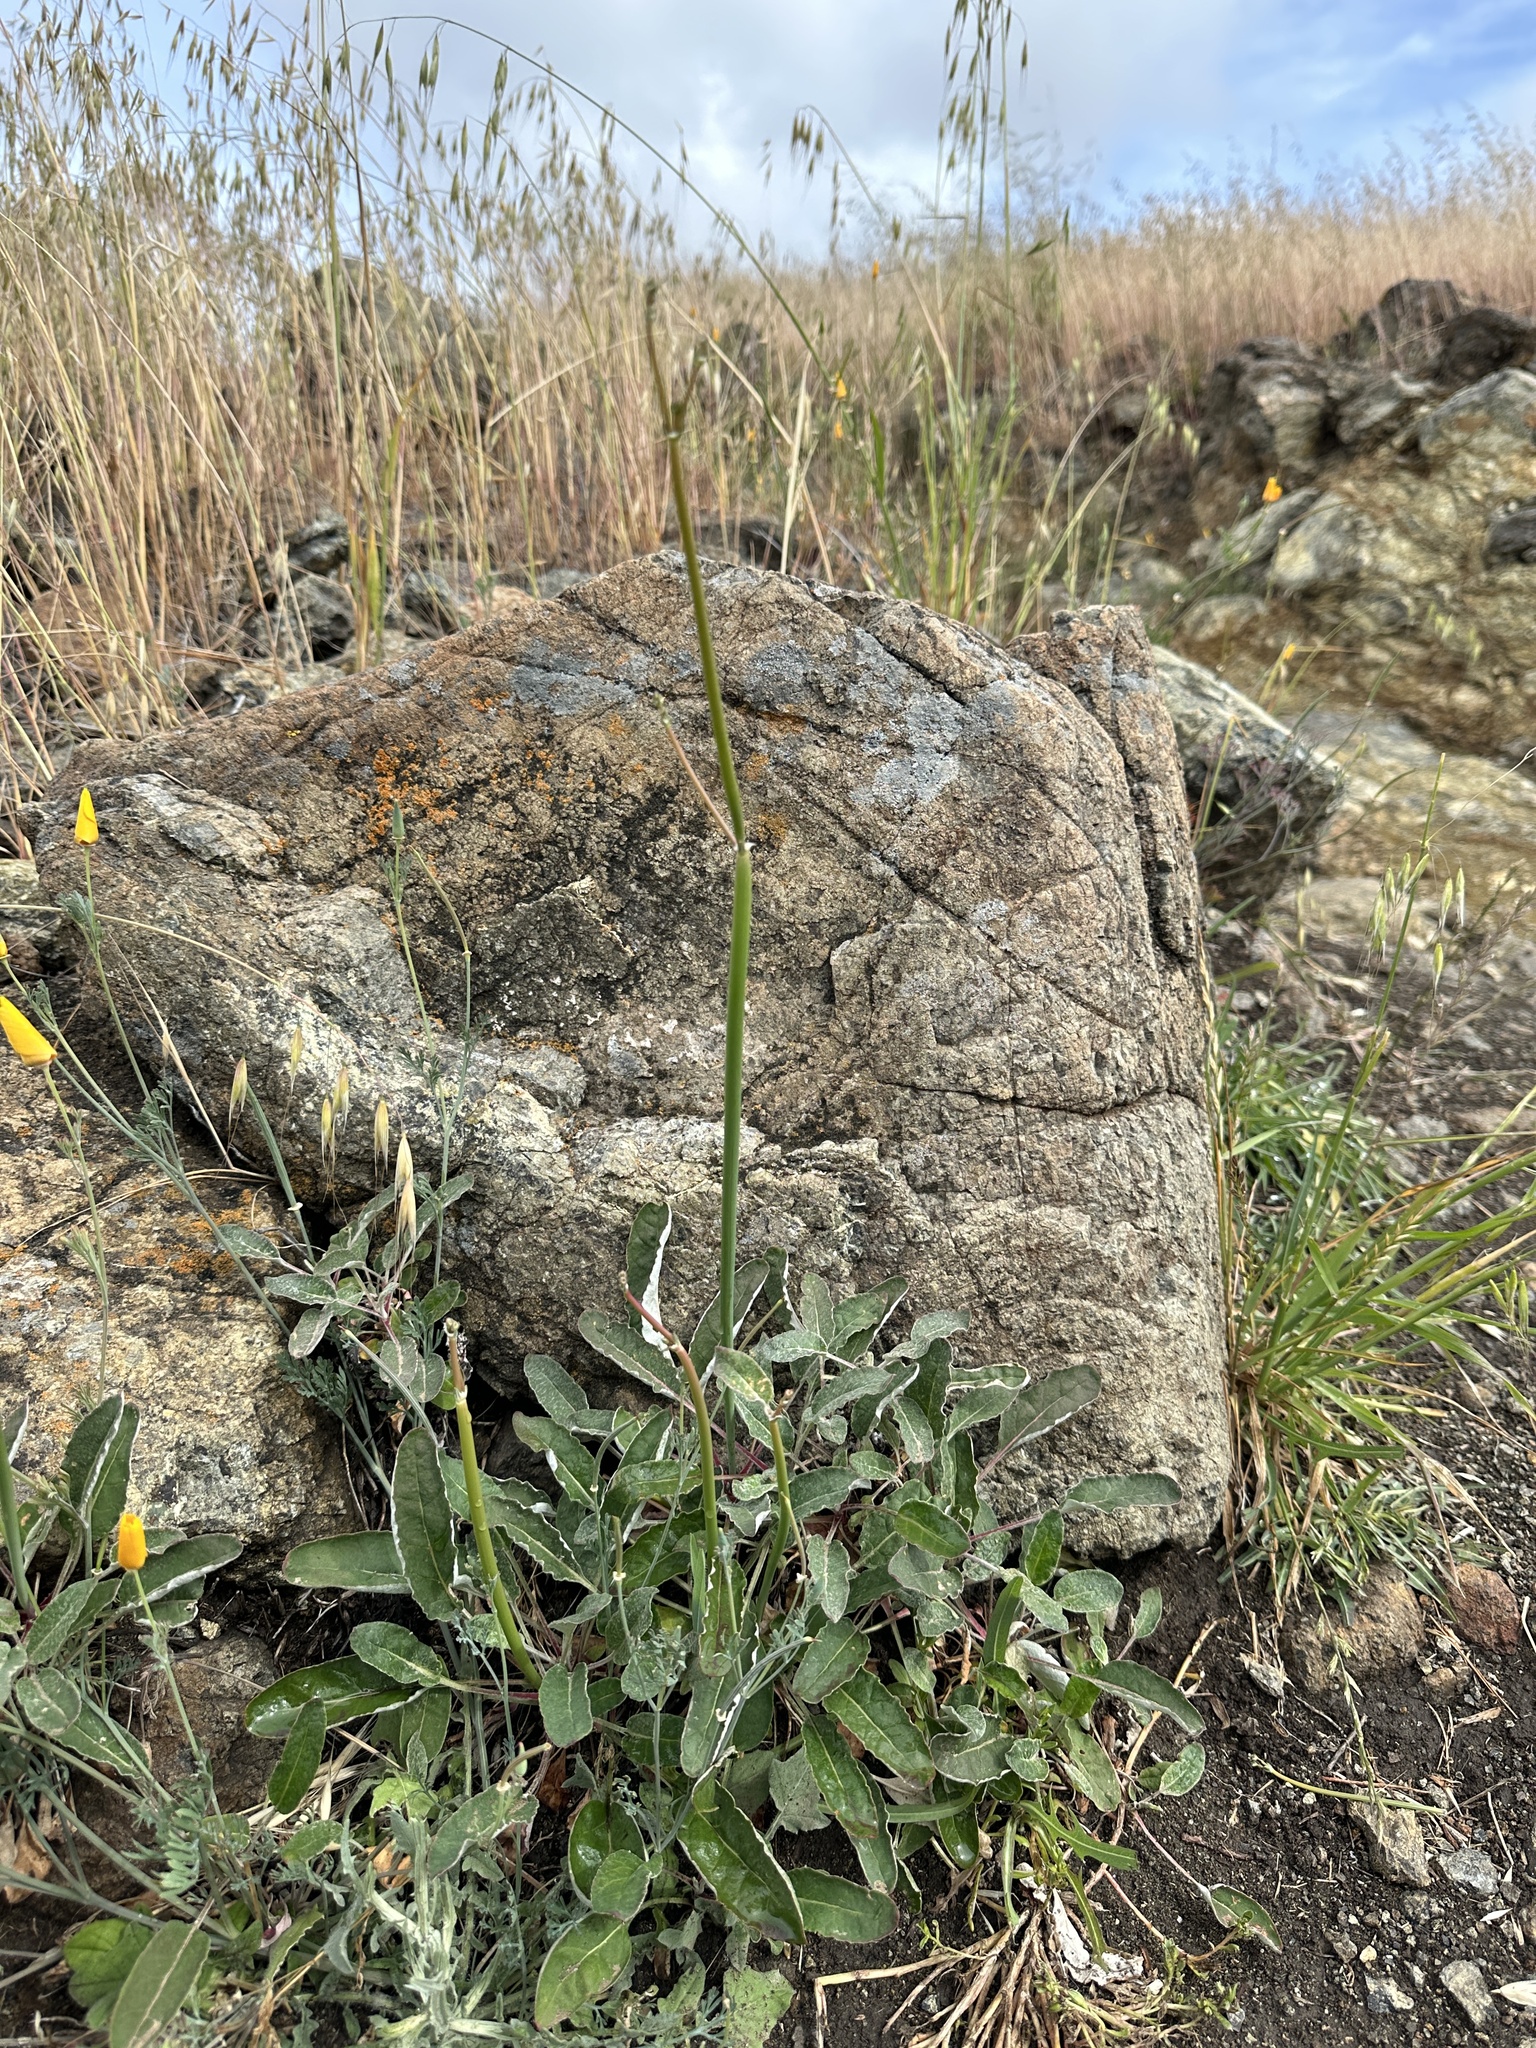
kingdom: Plantae
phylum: Tracheophyta
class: Magnoliopsida
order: Caryophyllales
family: Polygonaceae
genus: Eriogonum
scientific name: Eriogonum nudum
